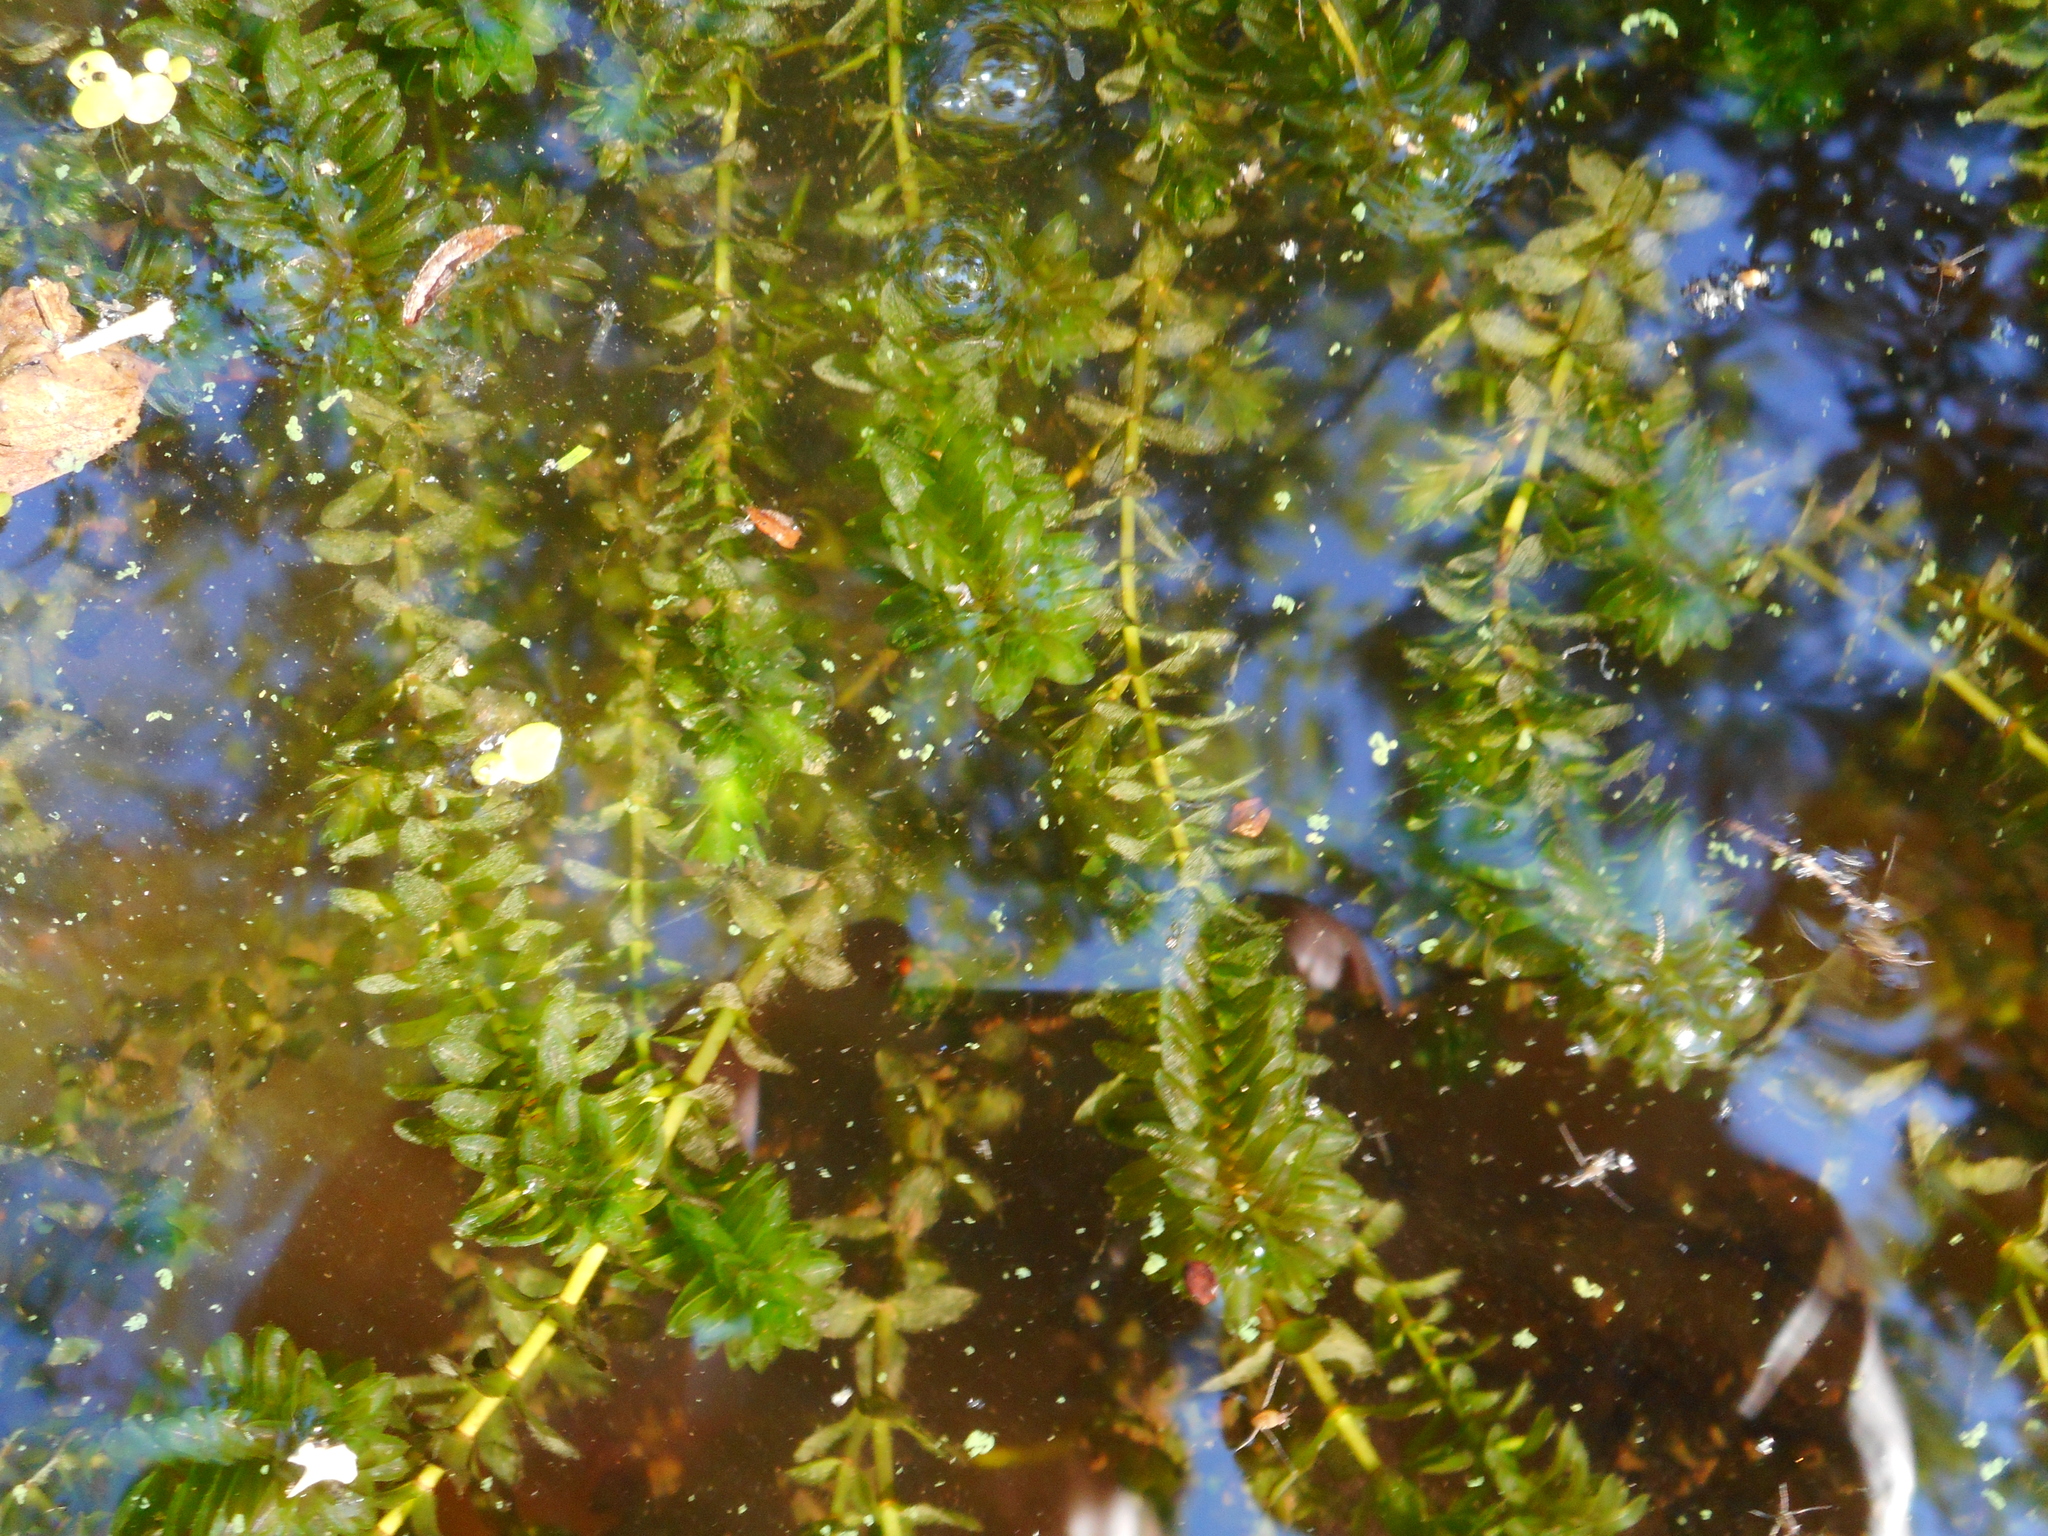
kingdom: Plantae
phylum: Tracheophyta
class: Liliopsida
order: Alismatales
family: Hydrocharitaceae
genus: Elodea
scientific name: Elodea canadensis
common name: Canadian waterweed
